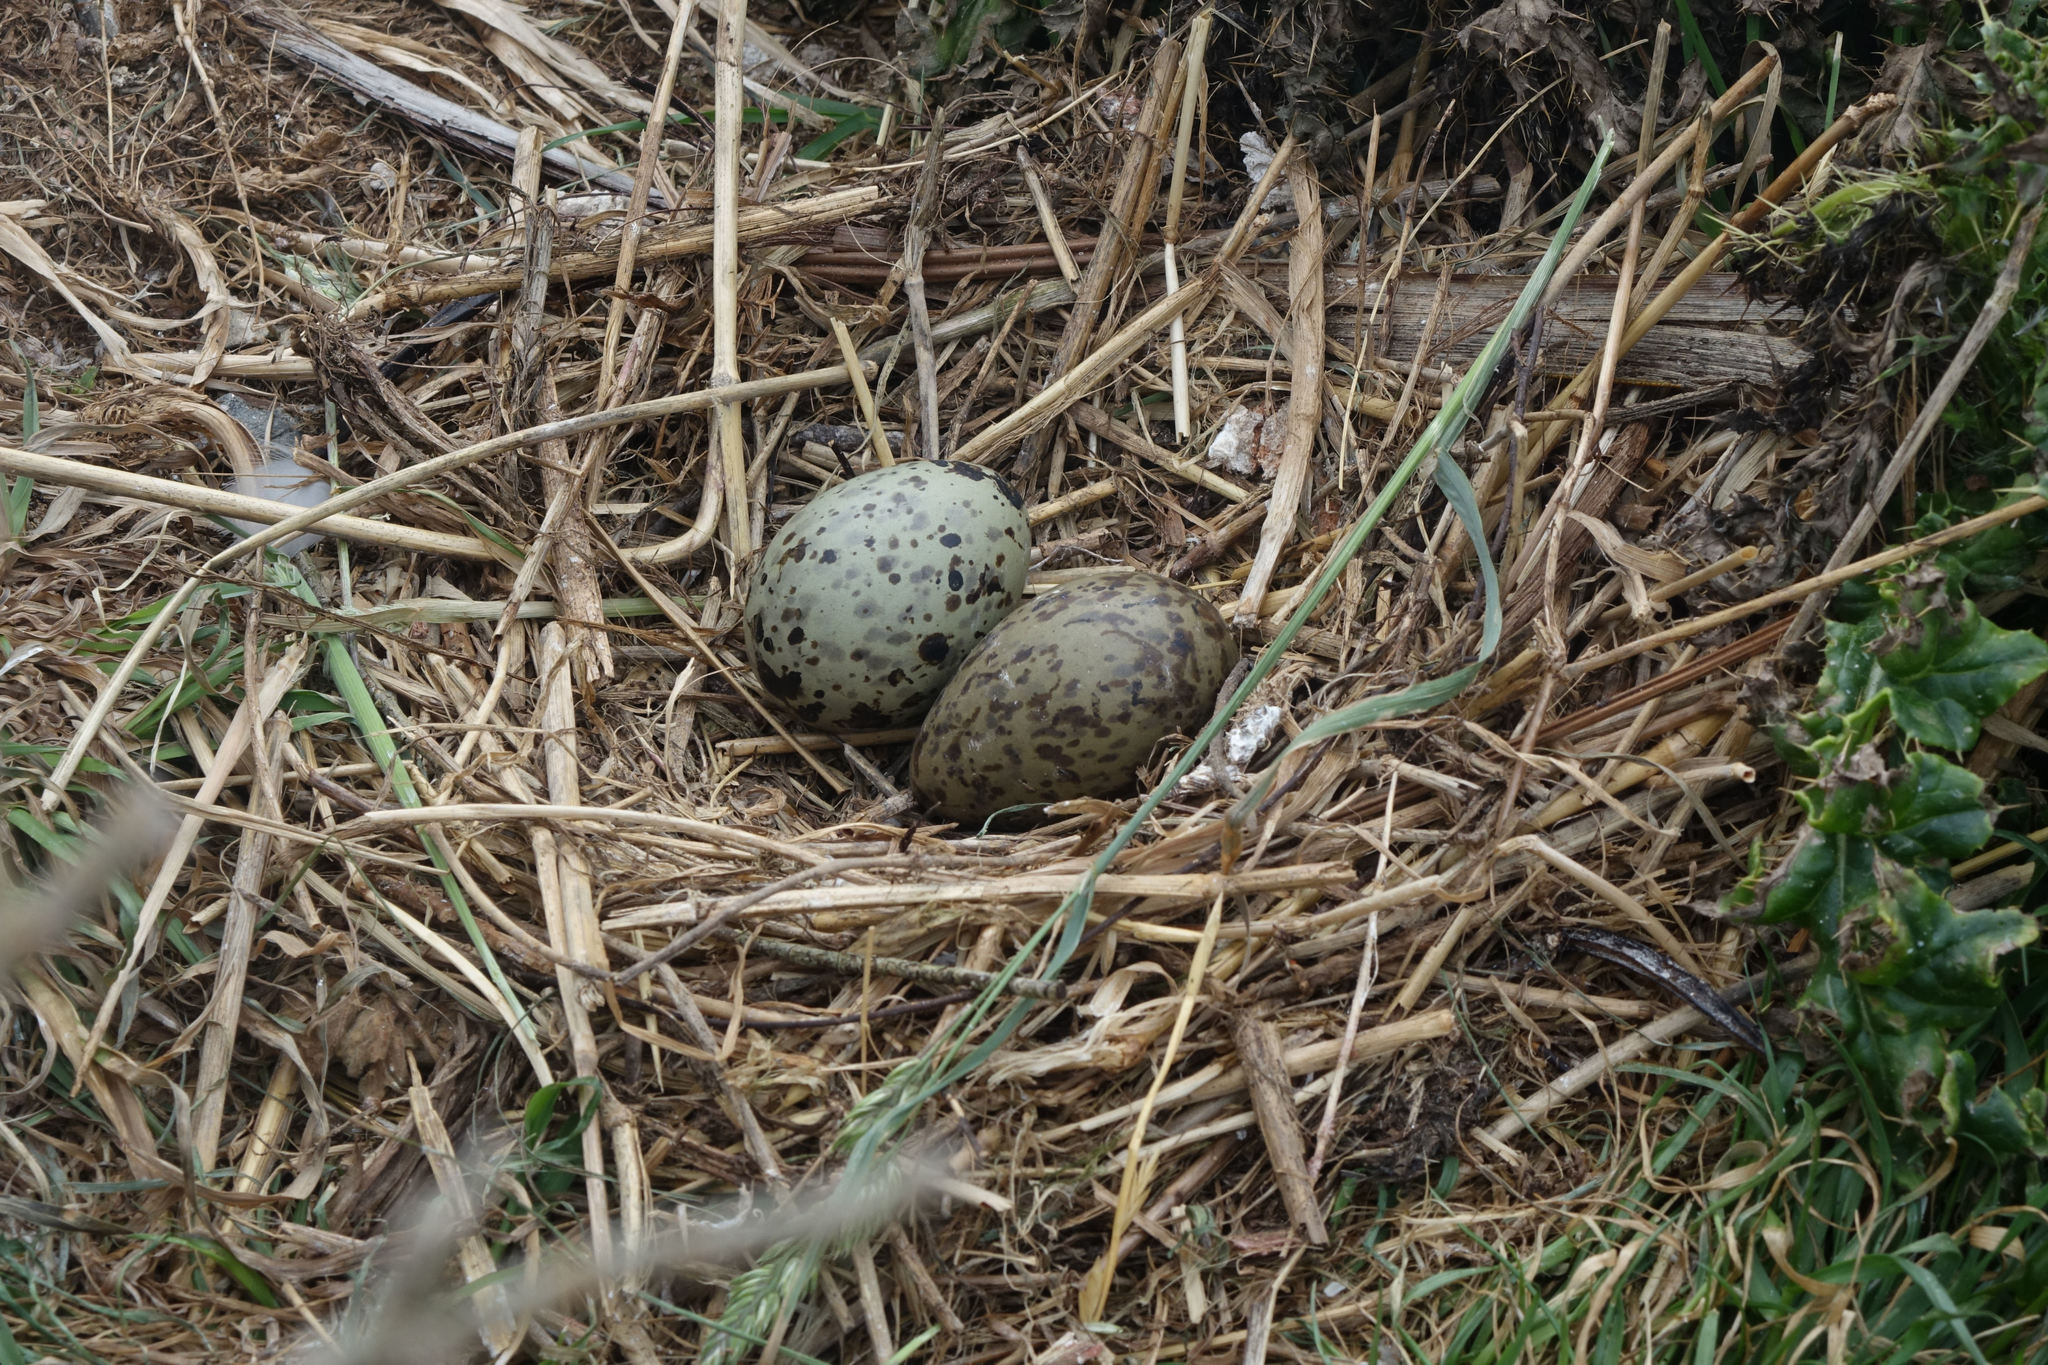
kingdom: Animalia
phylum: Chordata
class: Aves
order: Charadriiformes
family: Laridae
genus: Chroicocephalus
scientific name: Chroicocephalus novaehollandiae
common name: Silver gull
